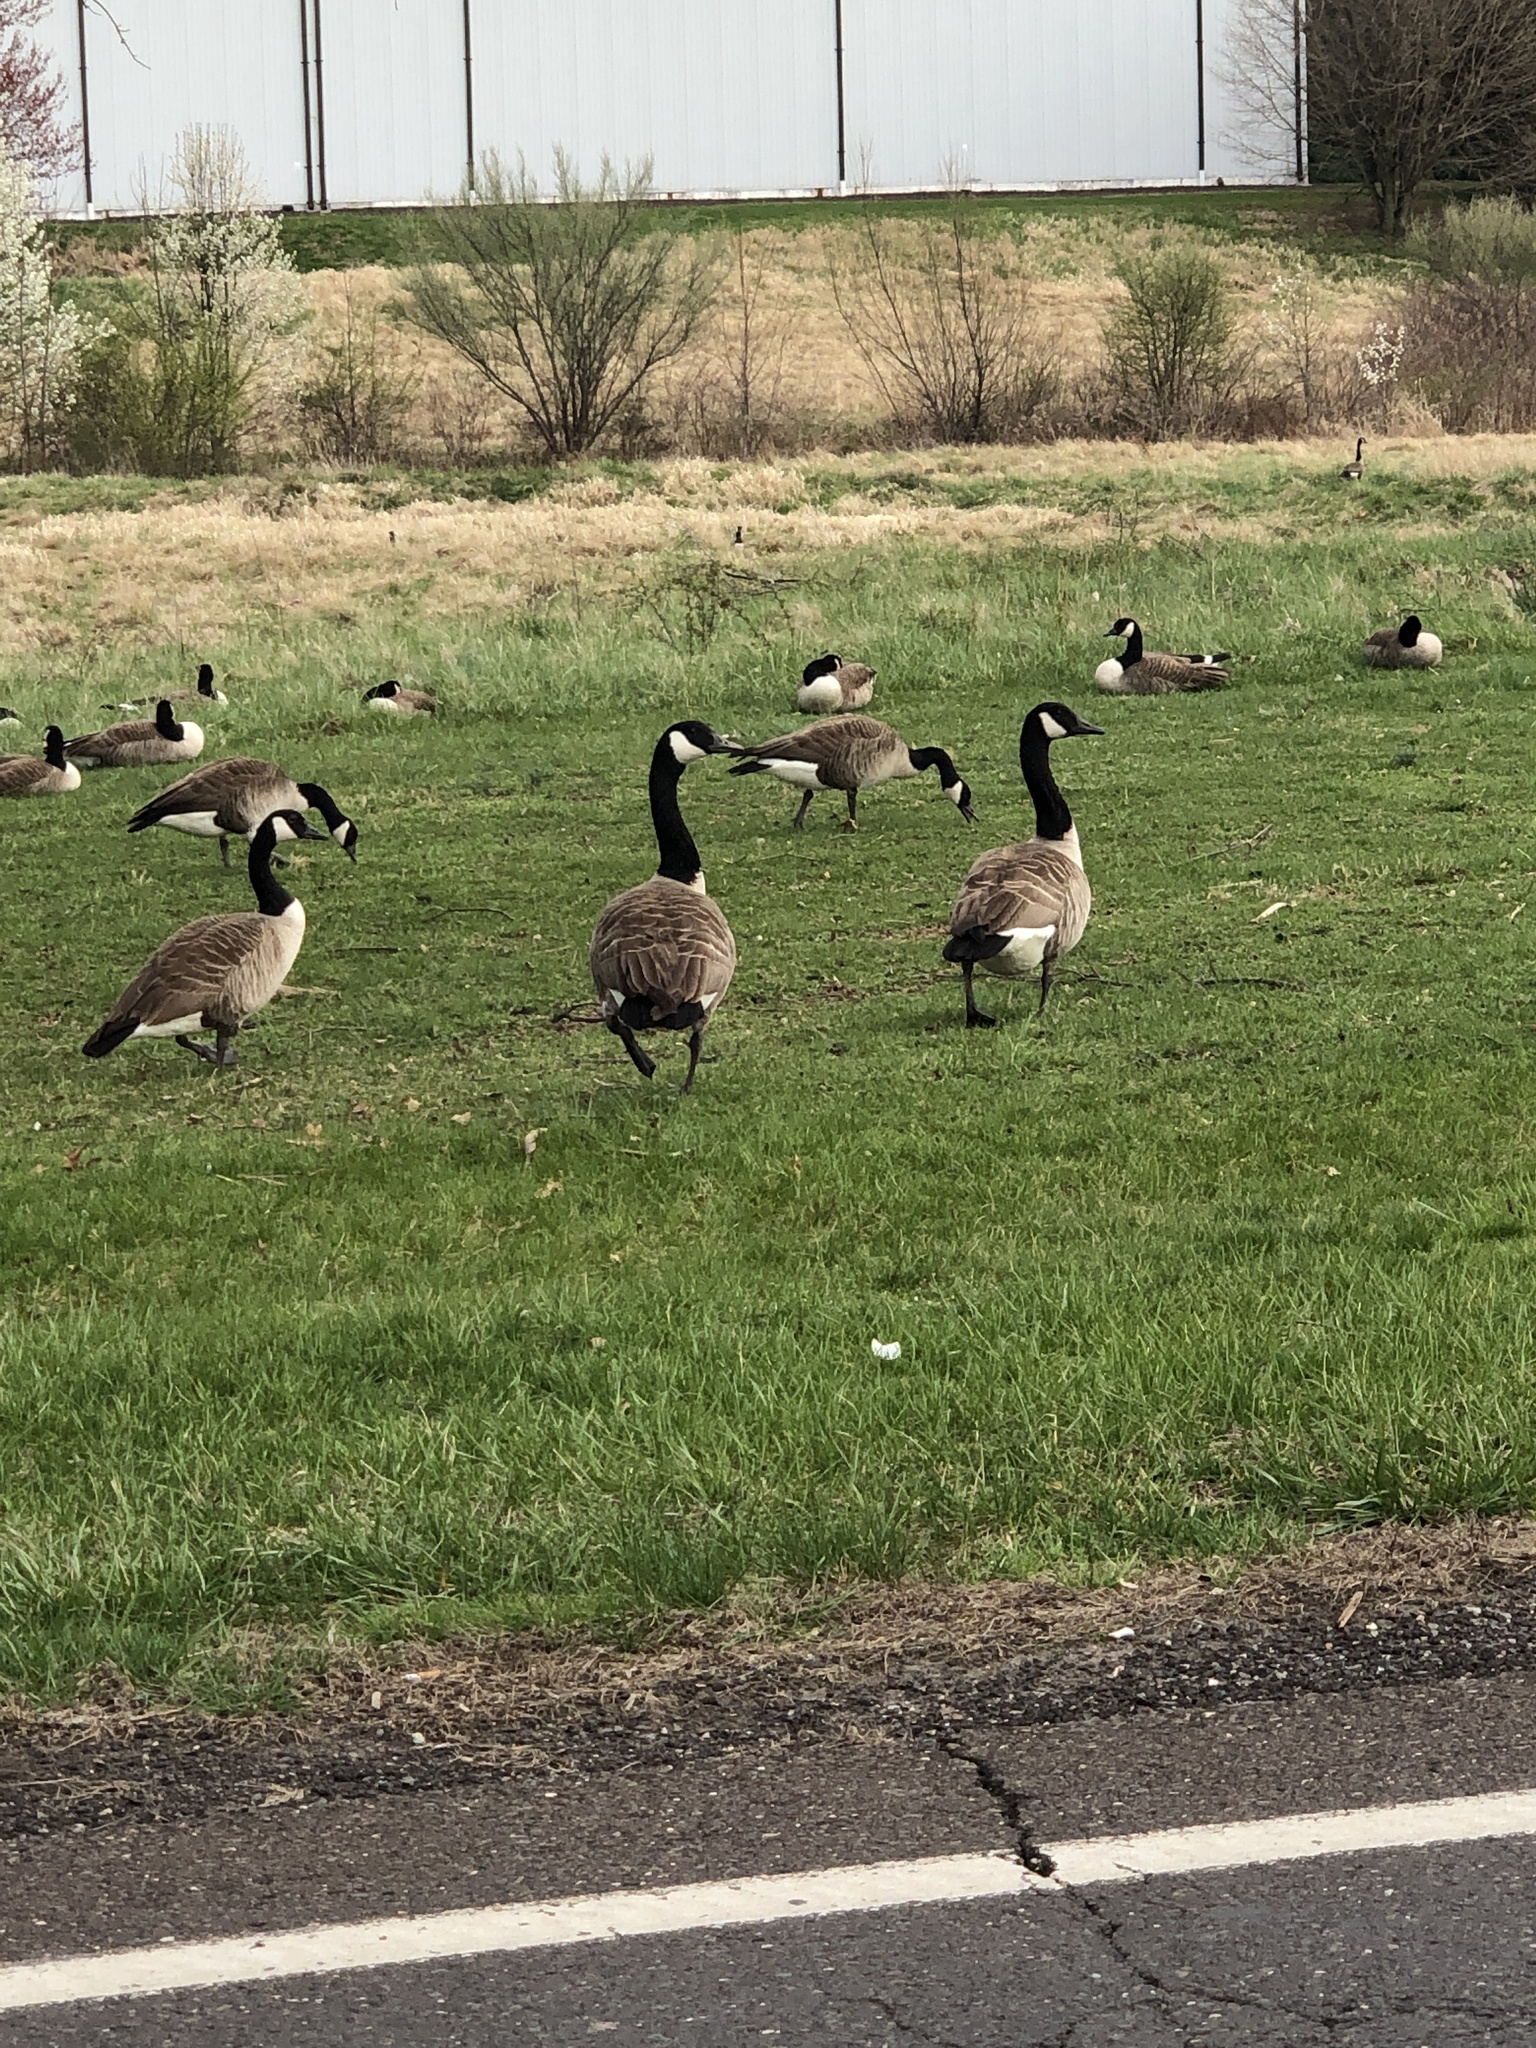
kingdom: Animalia
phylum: Chordata
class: Aves
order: Anseriformes
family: Anatidae
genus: Branta
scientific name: Branta canadensis
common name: Canada goose
